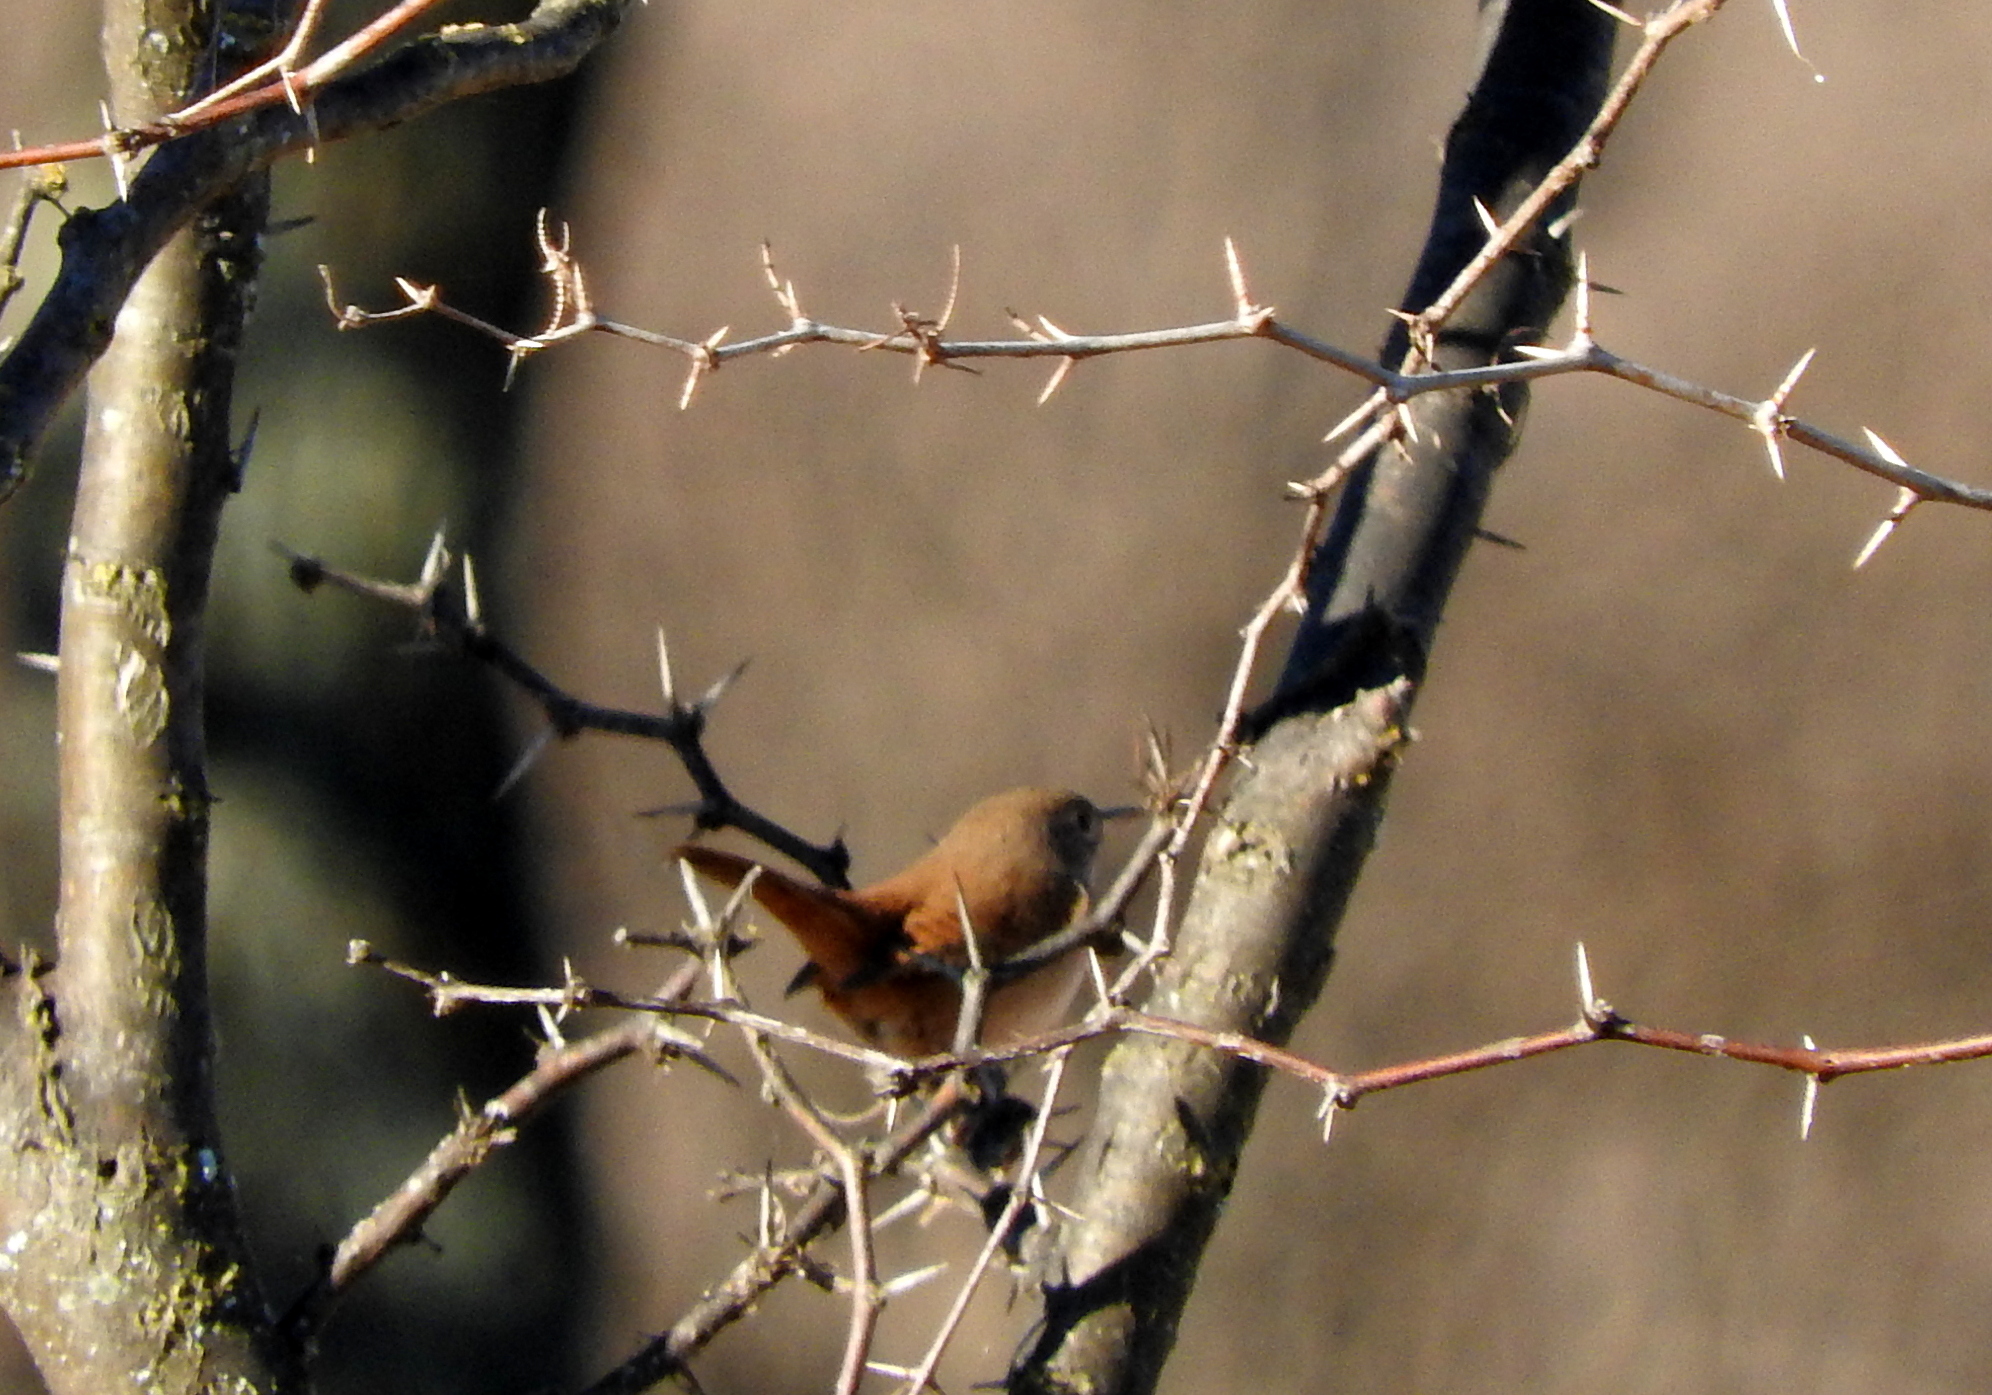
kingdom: Animalia
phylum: Chordata
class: Aves
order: Passeriformes
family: Troglodytidae
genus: Troglodytes
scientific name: Troglodytes aedon
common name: House wren
